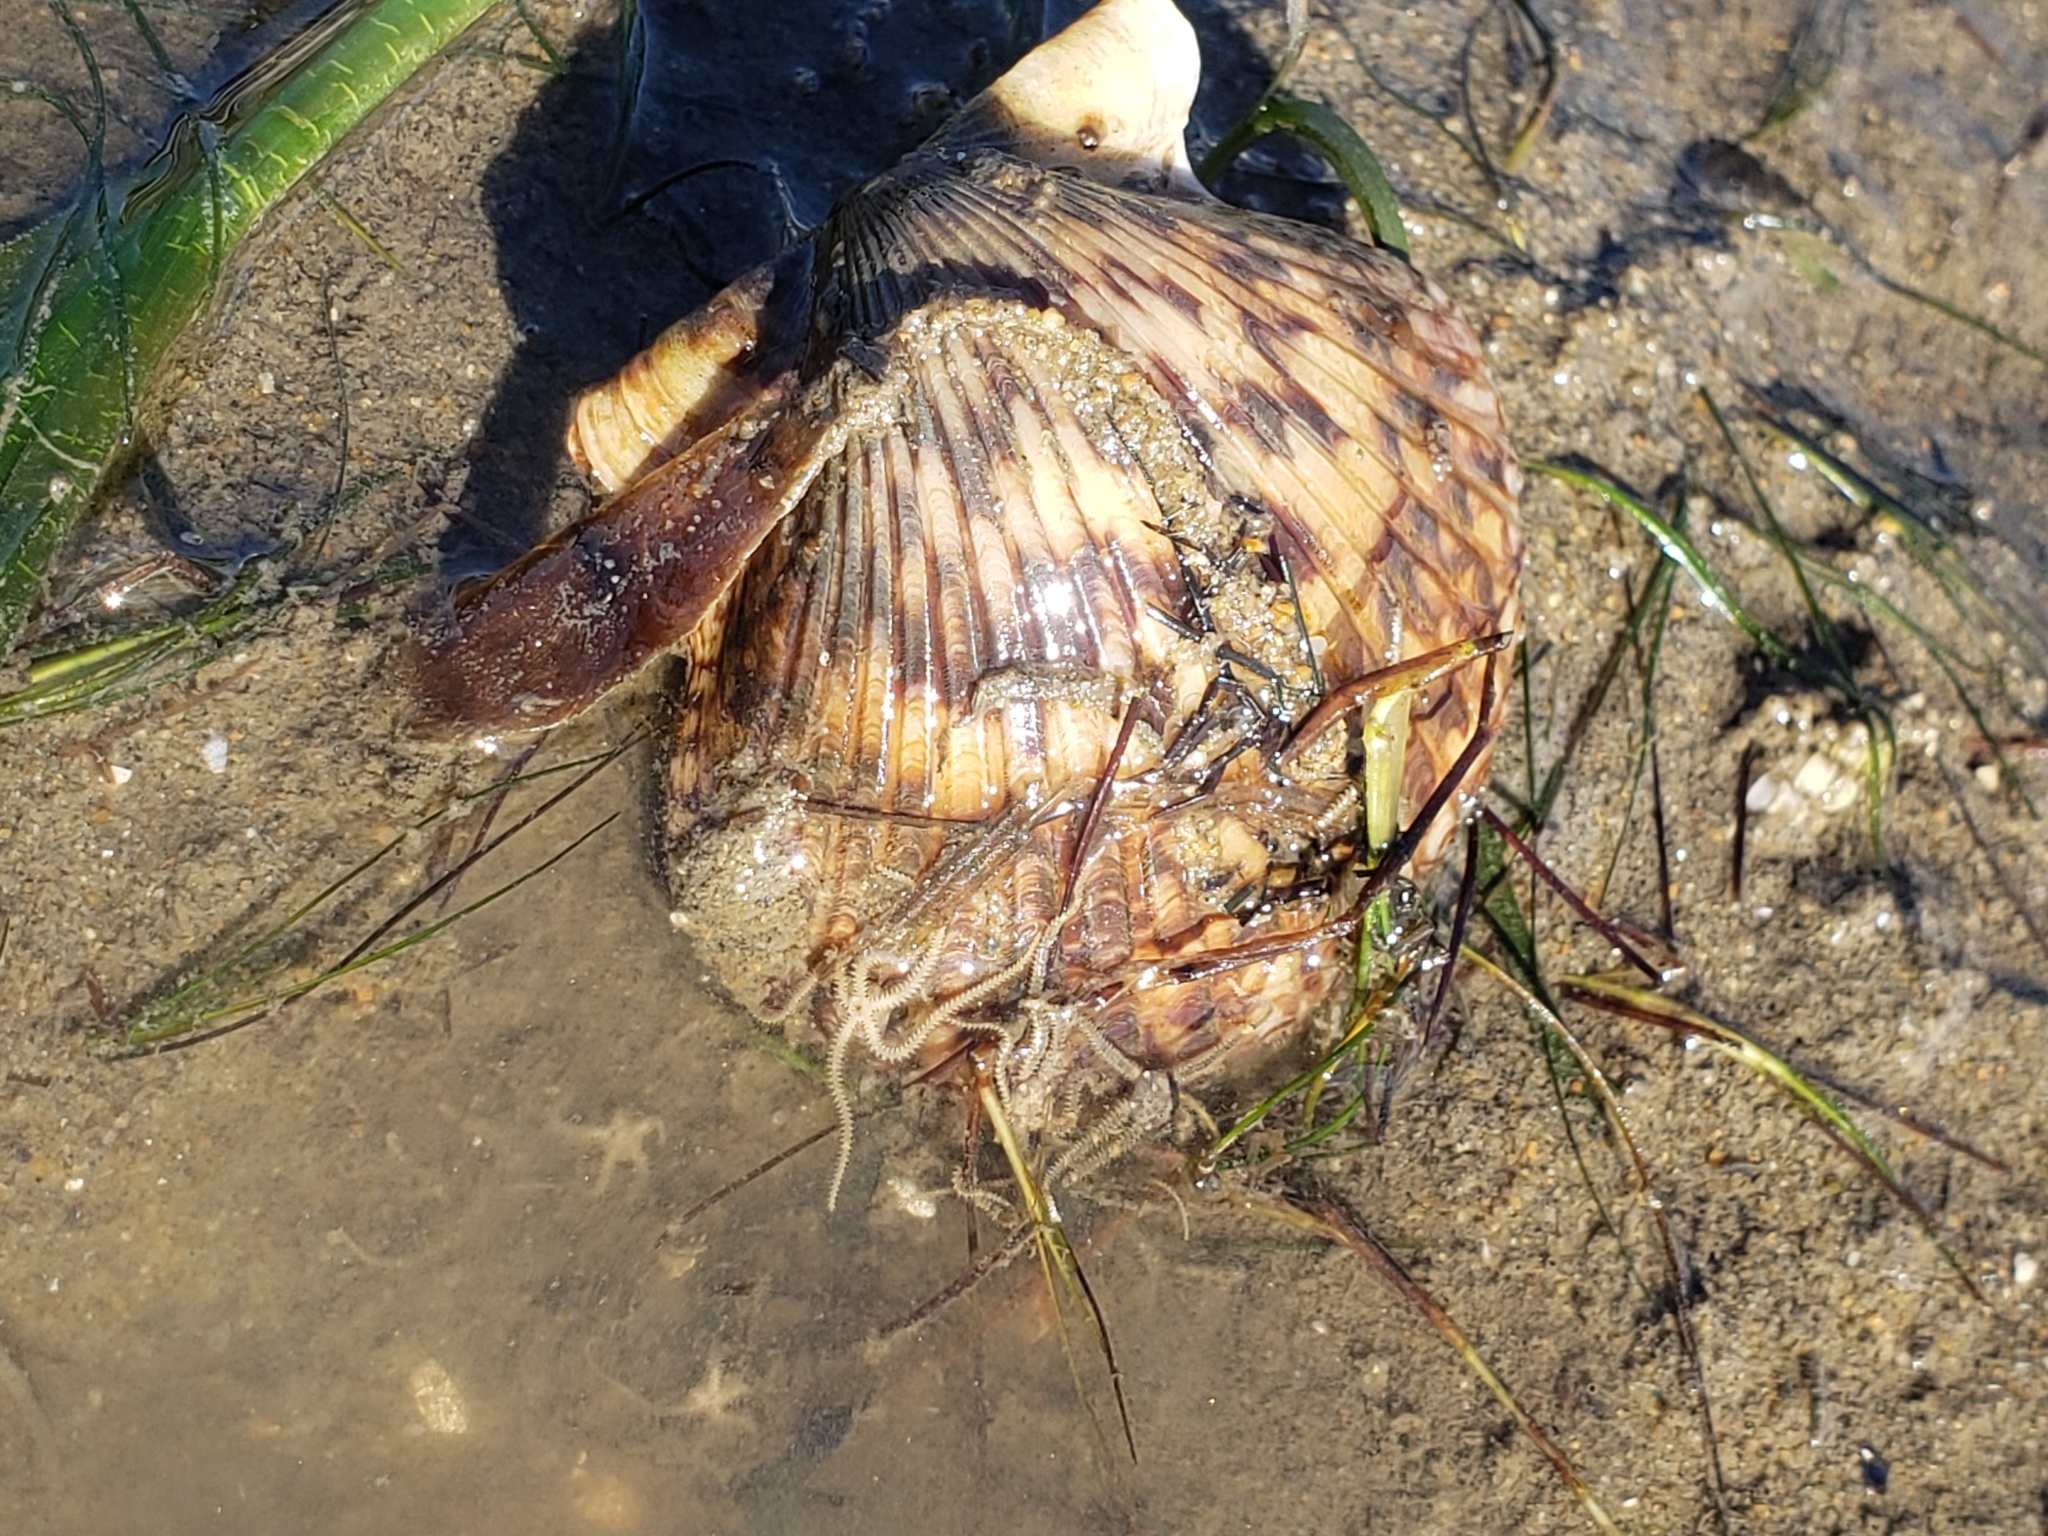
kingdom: Animalia
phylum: Mollusca
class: Bivalvia
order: Pectinida
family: Pectinidae
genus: Argopecten
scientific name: Argopecten ventricosus
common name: Catarina scallop
